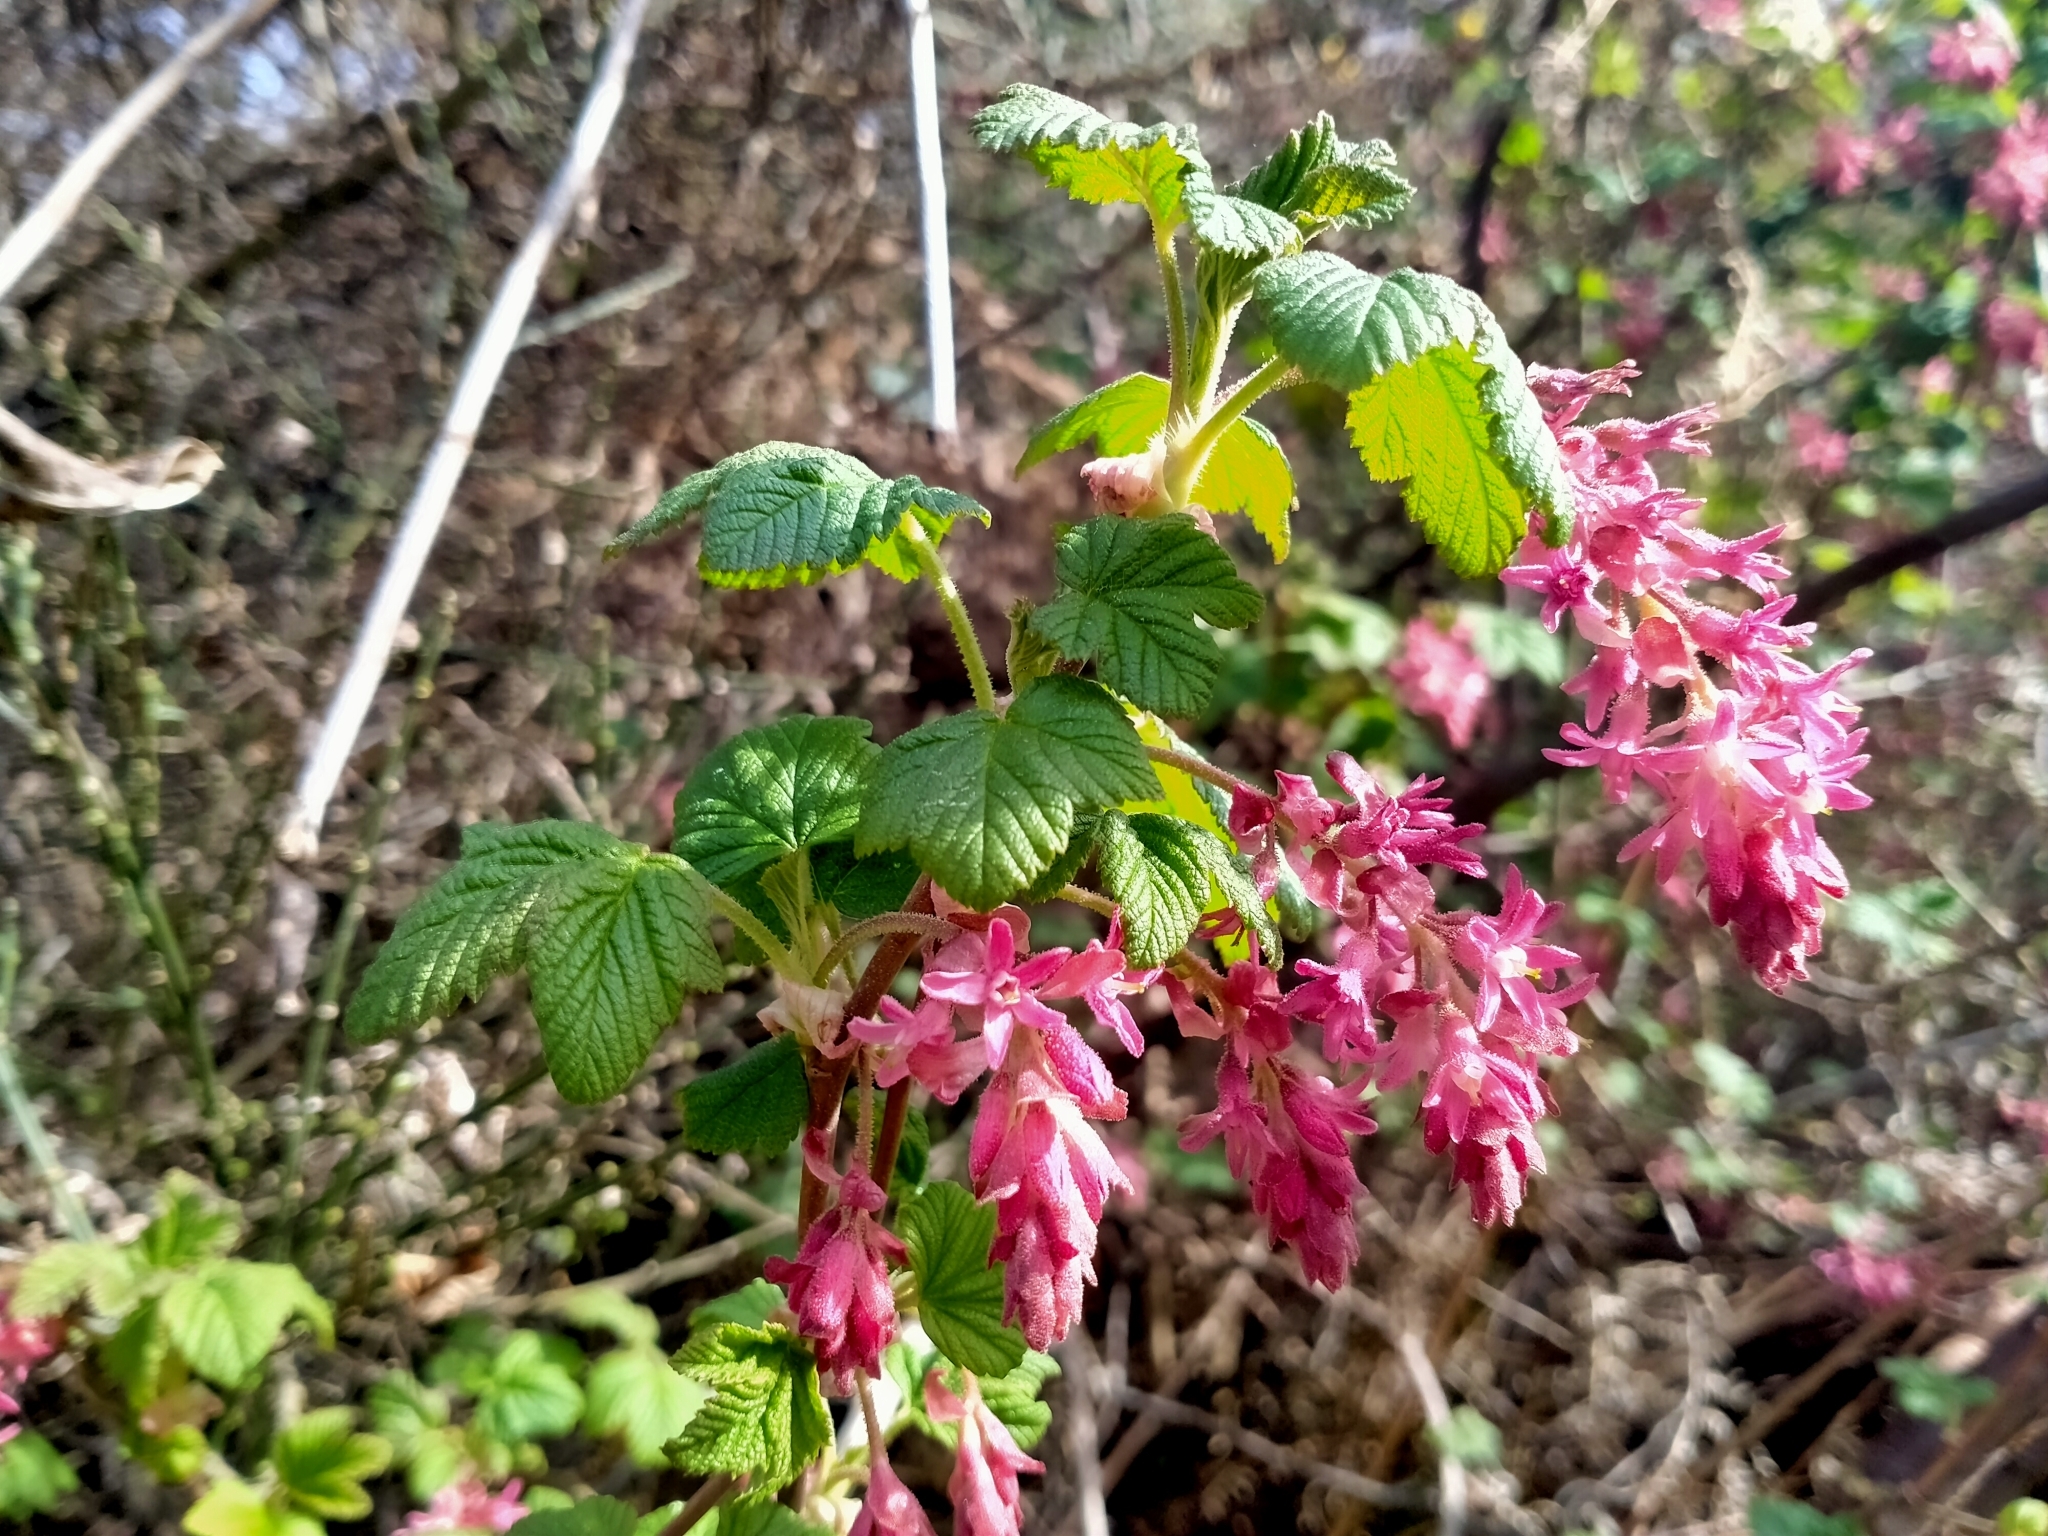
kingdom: Plantae
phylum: Tracheophyta
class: Magnoliopsida
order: Saxifragales
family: Grossulariaceae
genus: Ribes
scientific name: Ribes sanguineum
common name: Flowering currant
